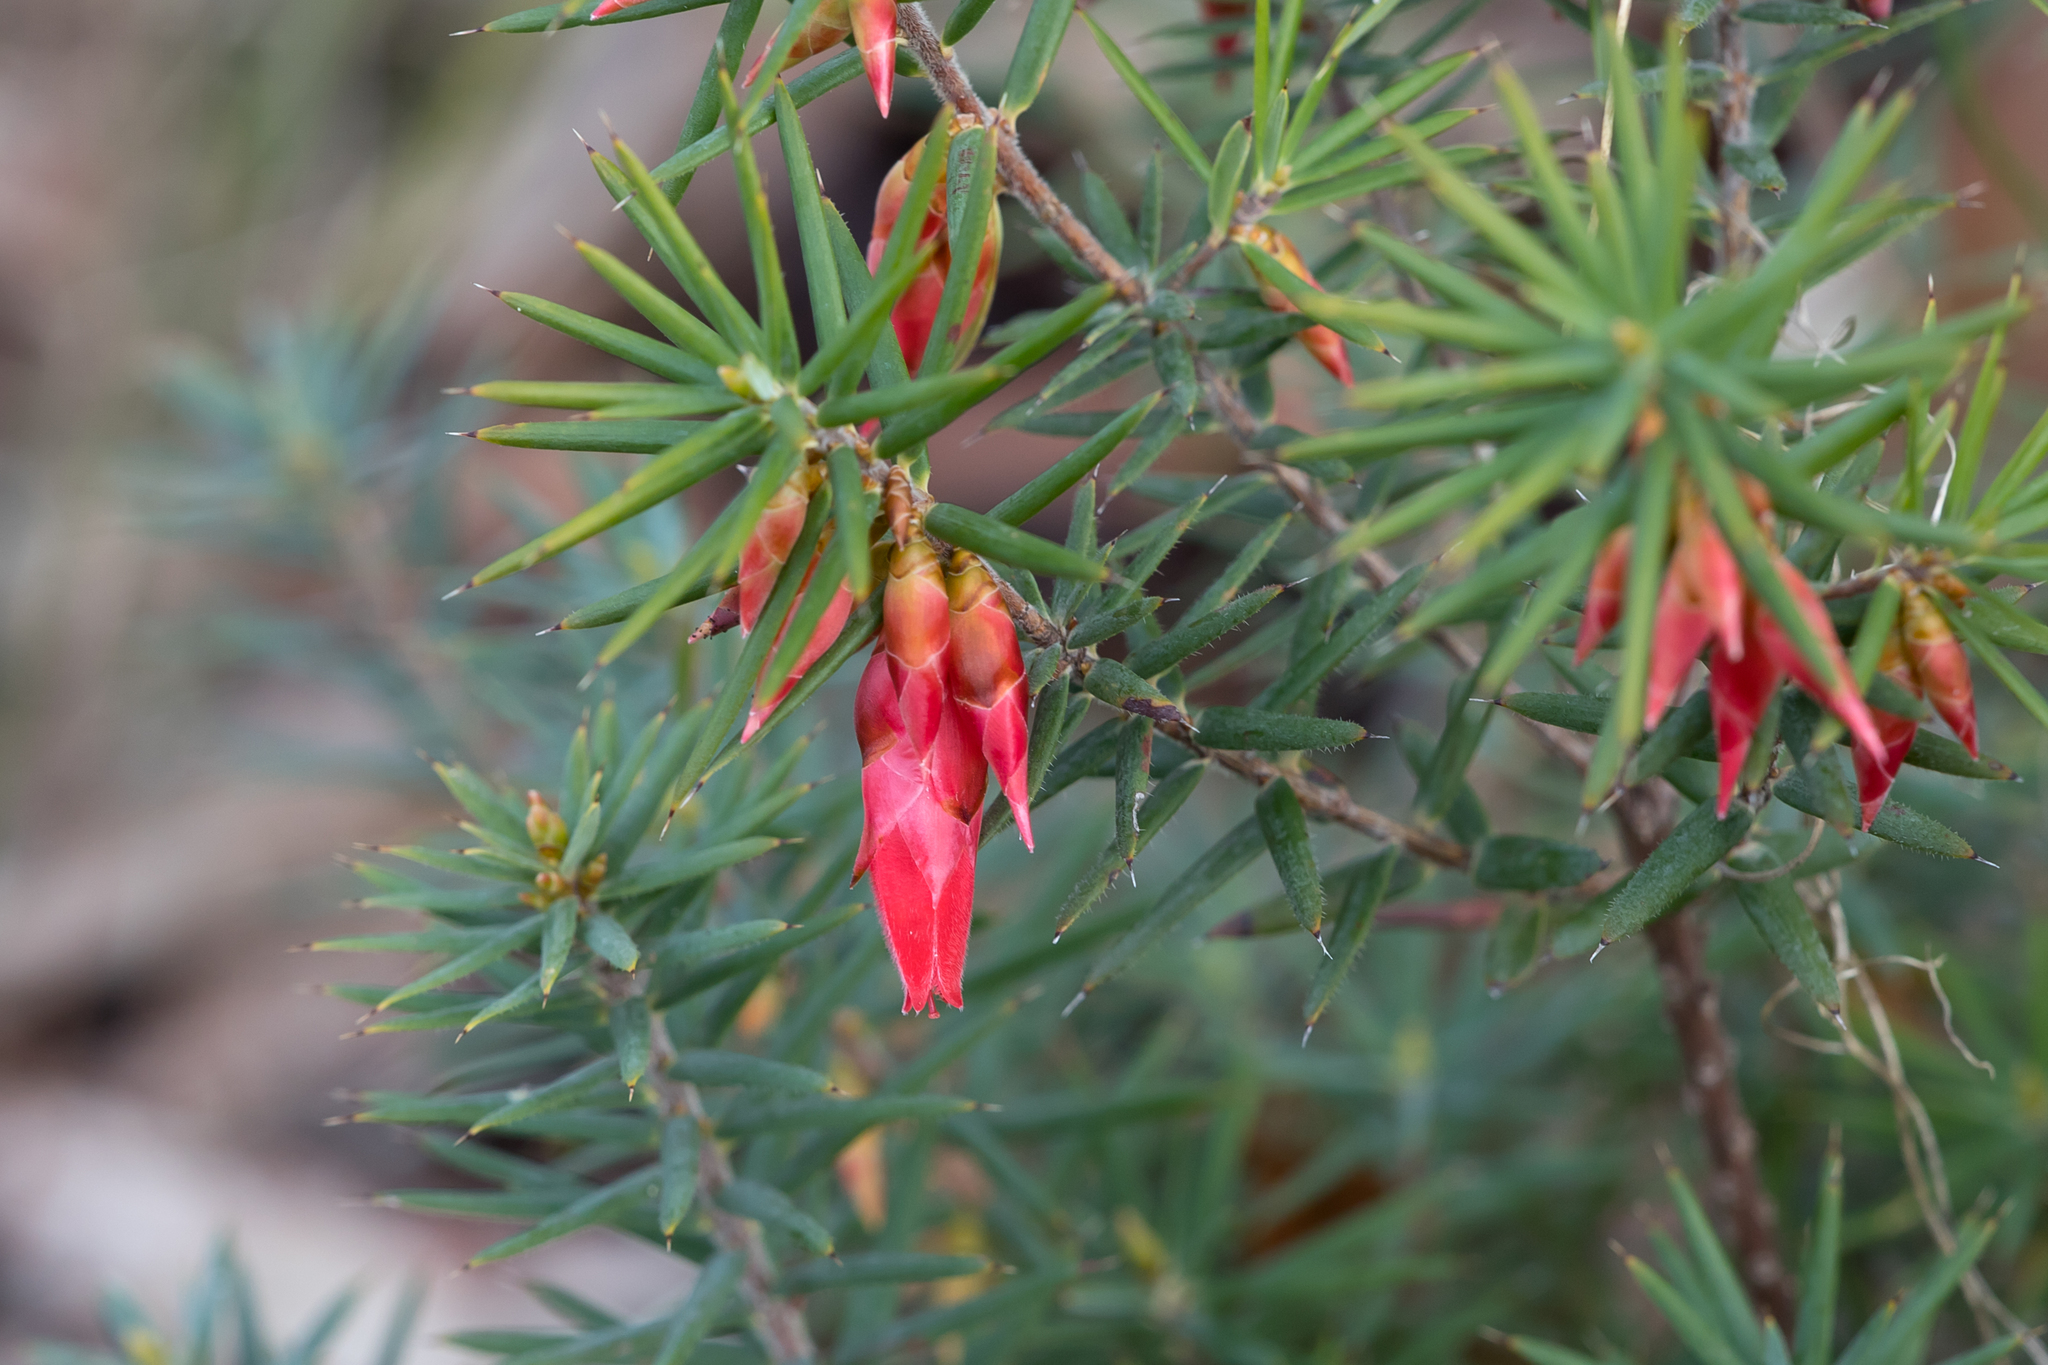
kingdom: Plantae
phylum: Tracheophyta
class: Magnoliopsida
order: Ericales
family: Ericaceae
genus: Stenanthera
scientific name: Stenanthera conostephioides
